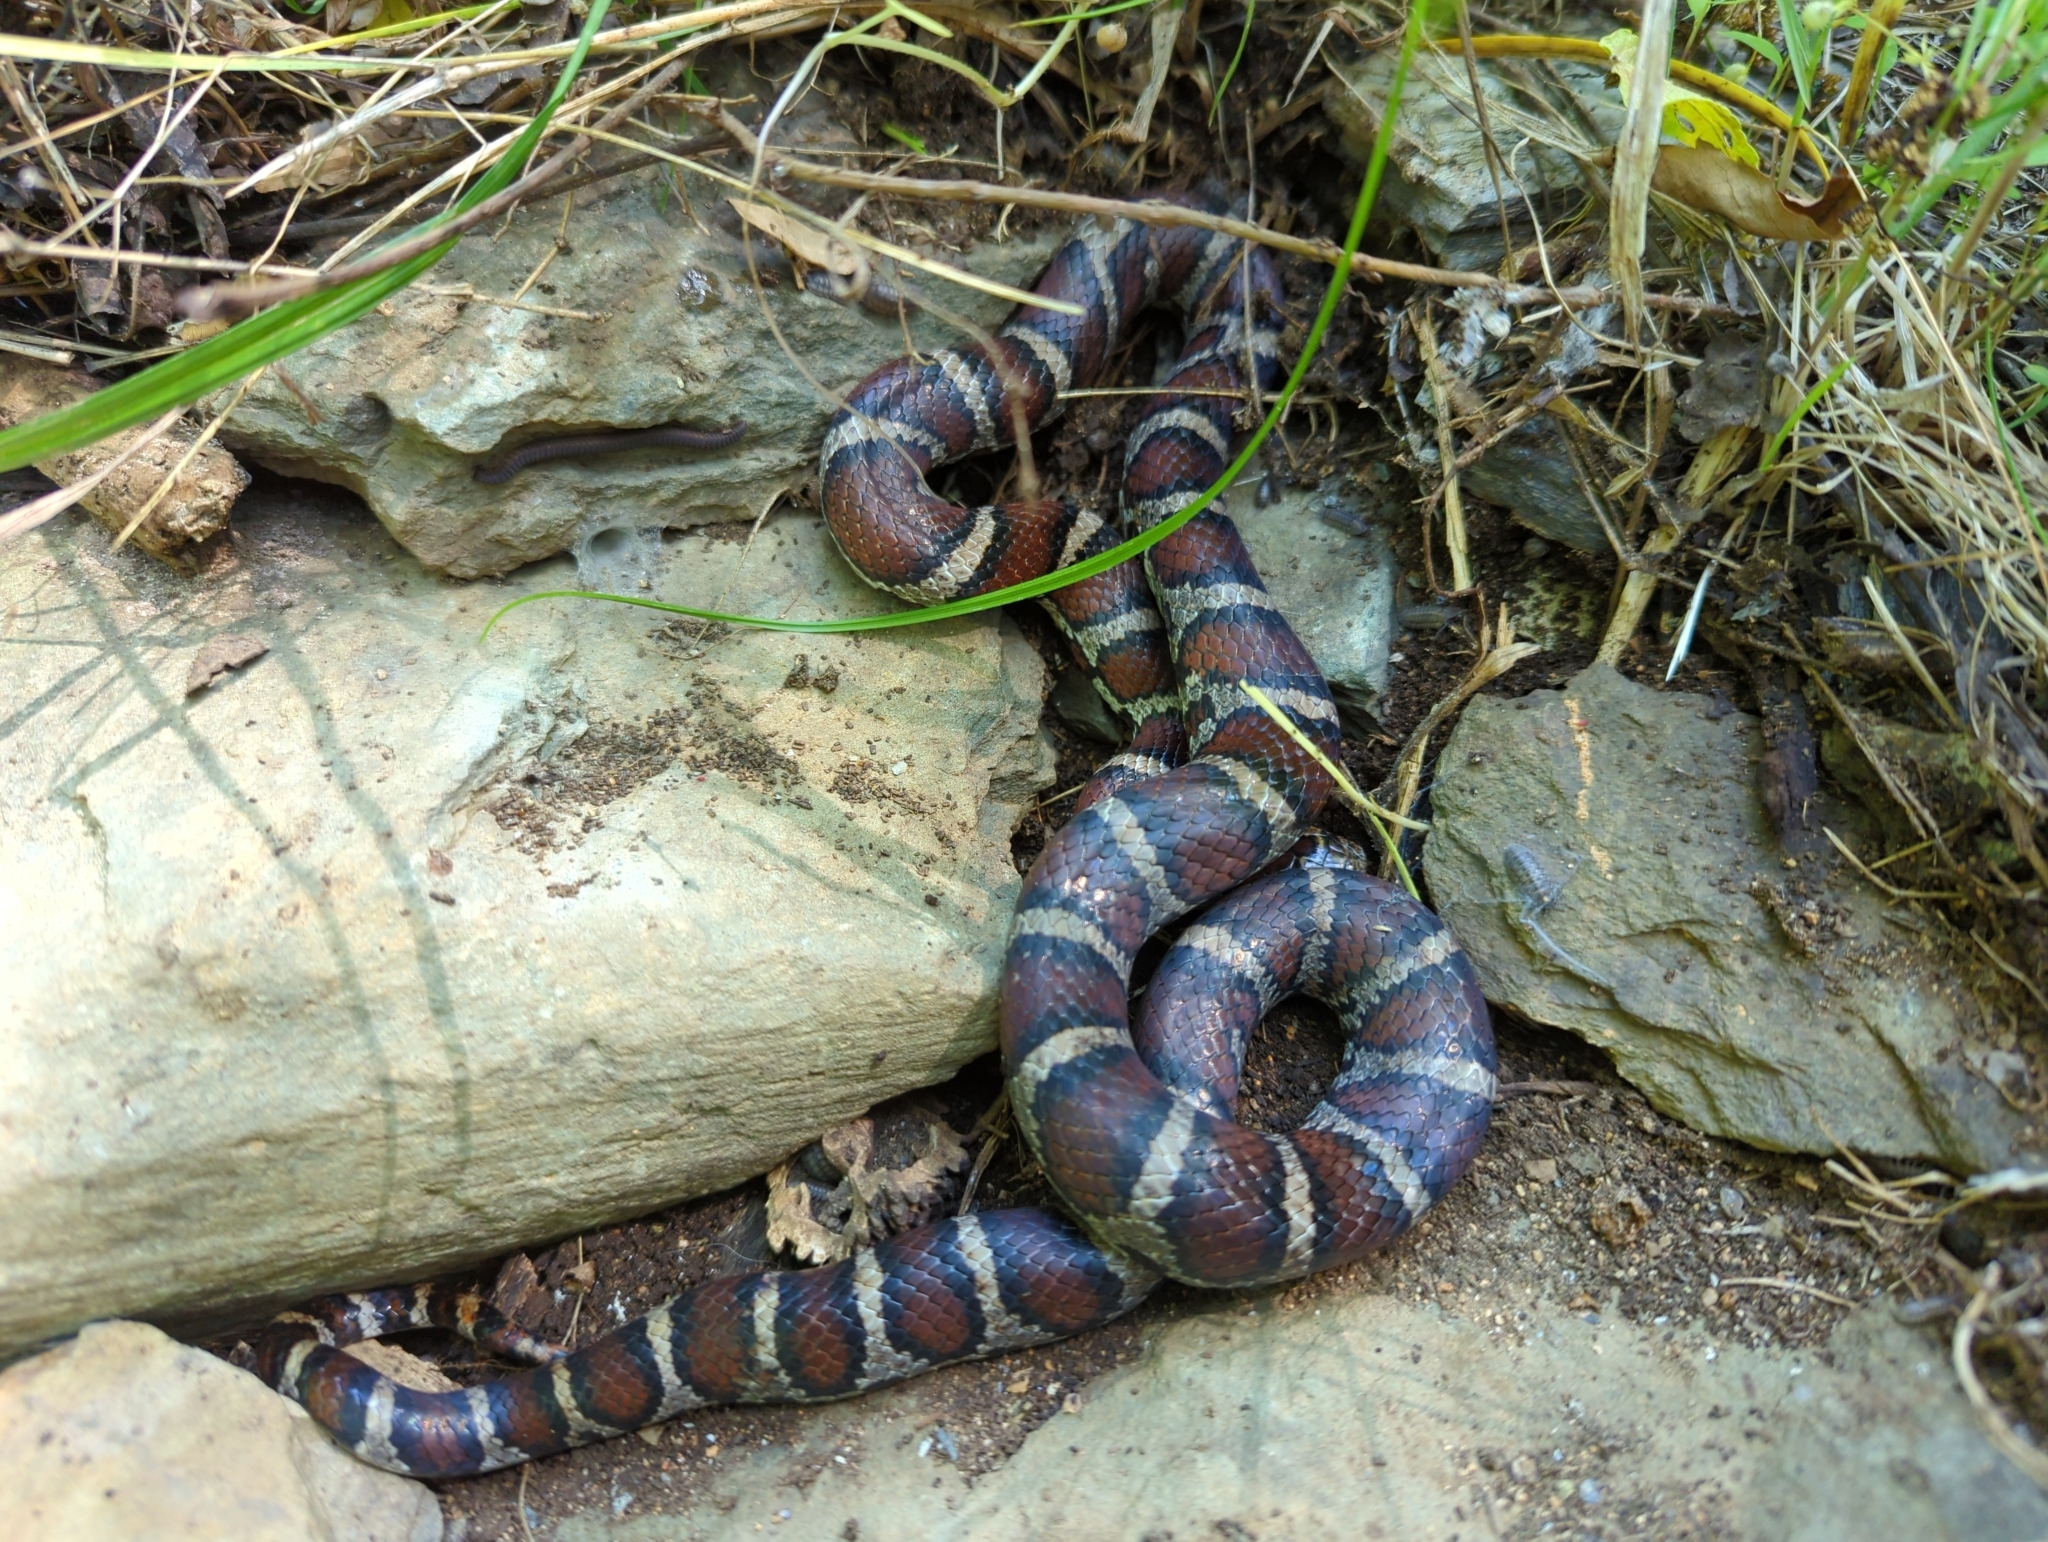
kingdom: Animalia
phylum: Chordata
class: Squamata
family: Colubridae
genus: Lampropeltis
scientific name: Lampropeltis triangulum
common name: Eastern milksnake
